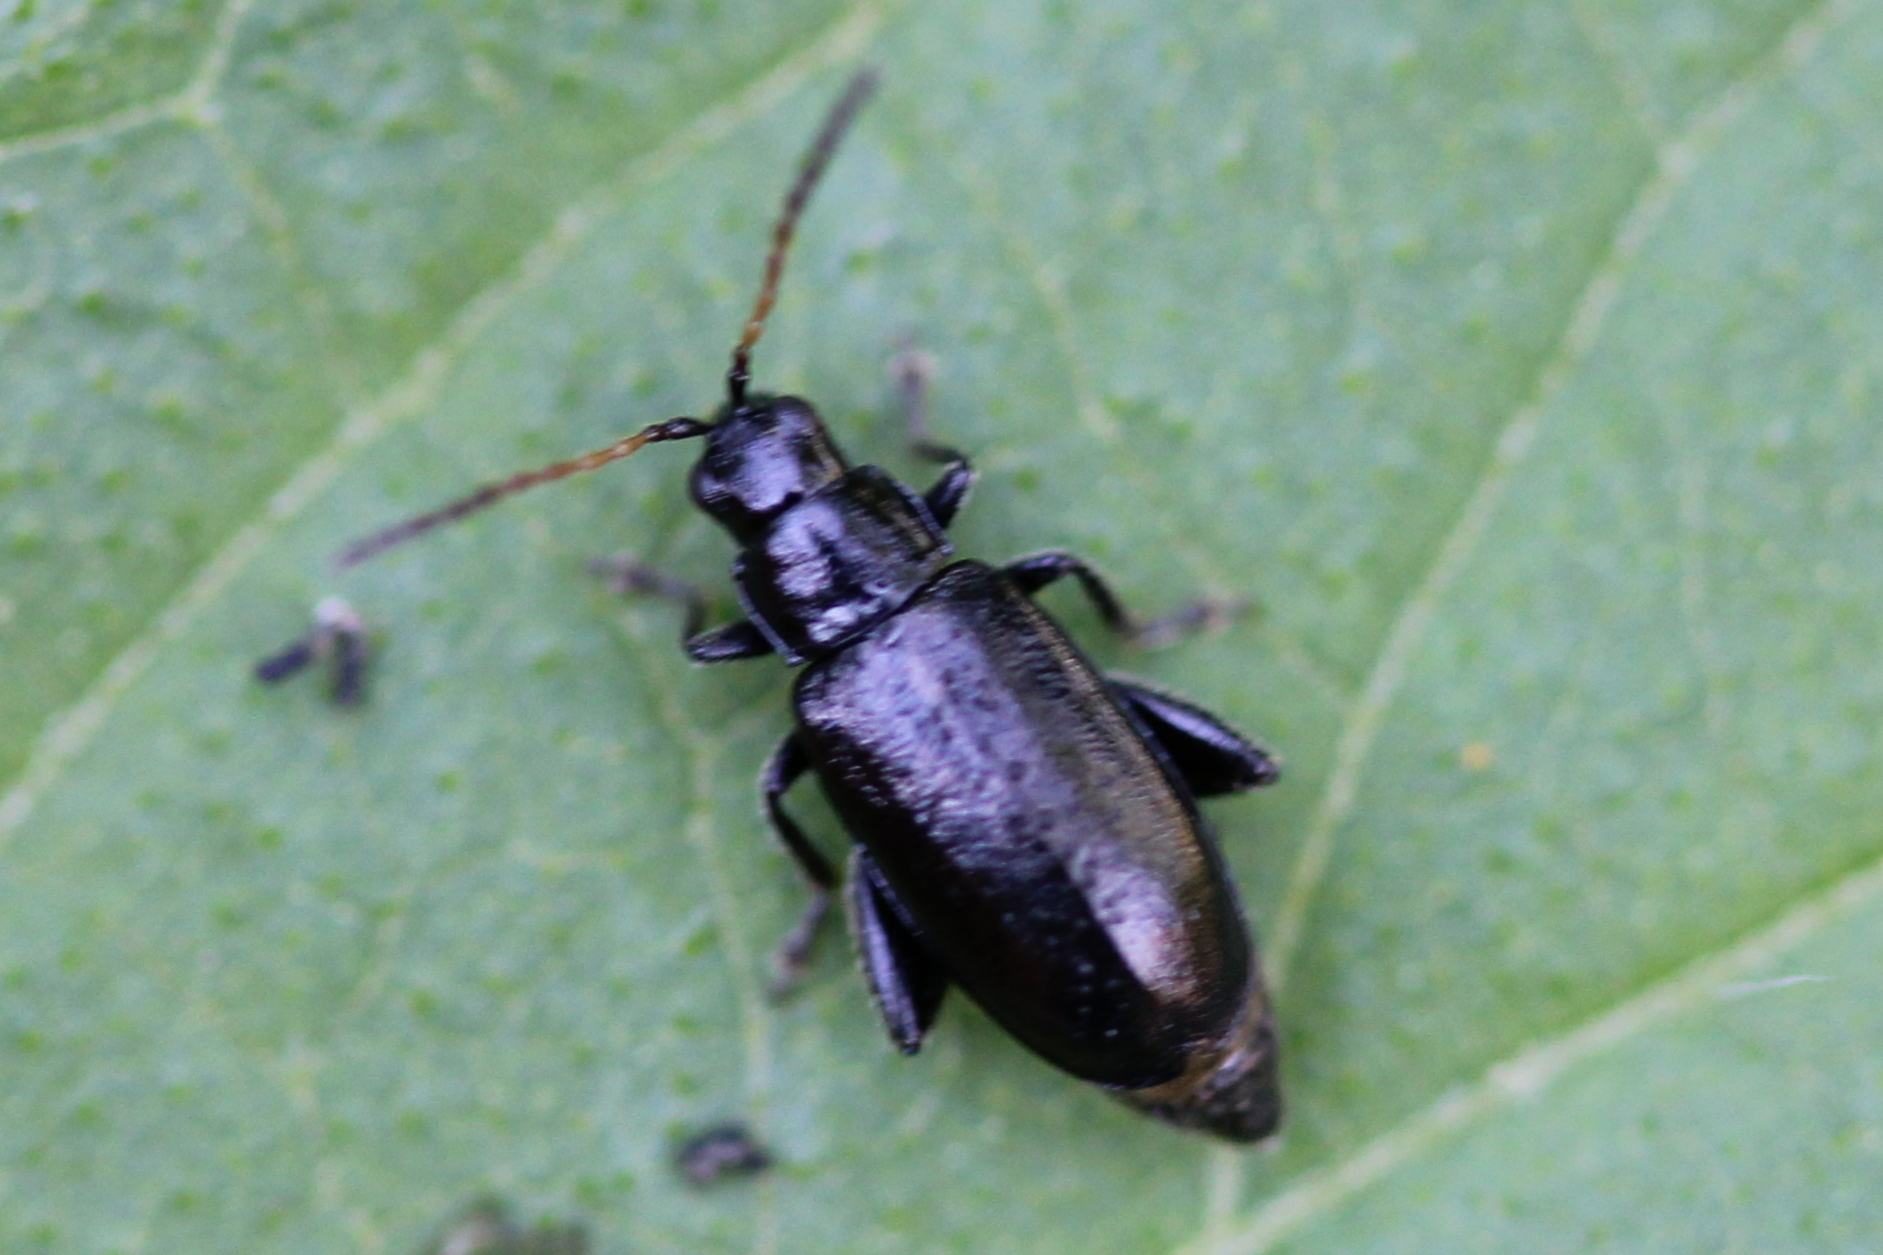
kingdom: Animalia
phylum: Arthropoda
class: Insecta
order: Coleoptera
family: Chrysomelidae
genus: Systena
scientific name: Systena hudsonias
